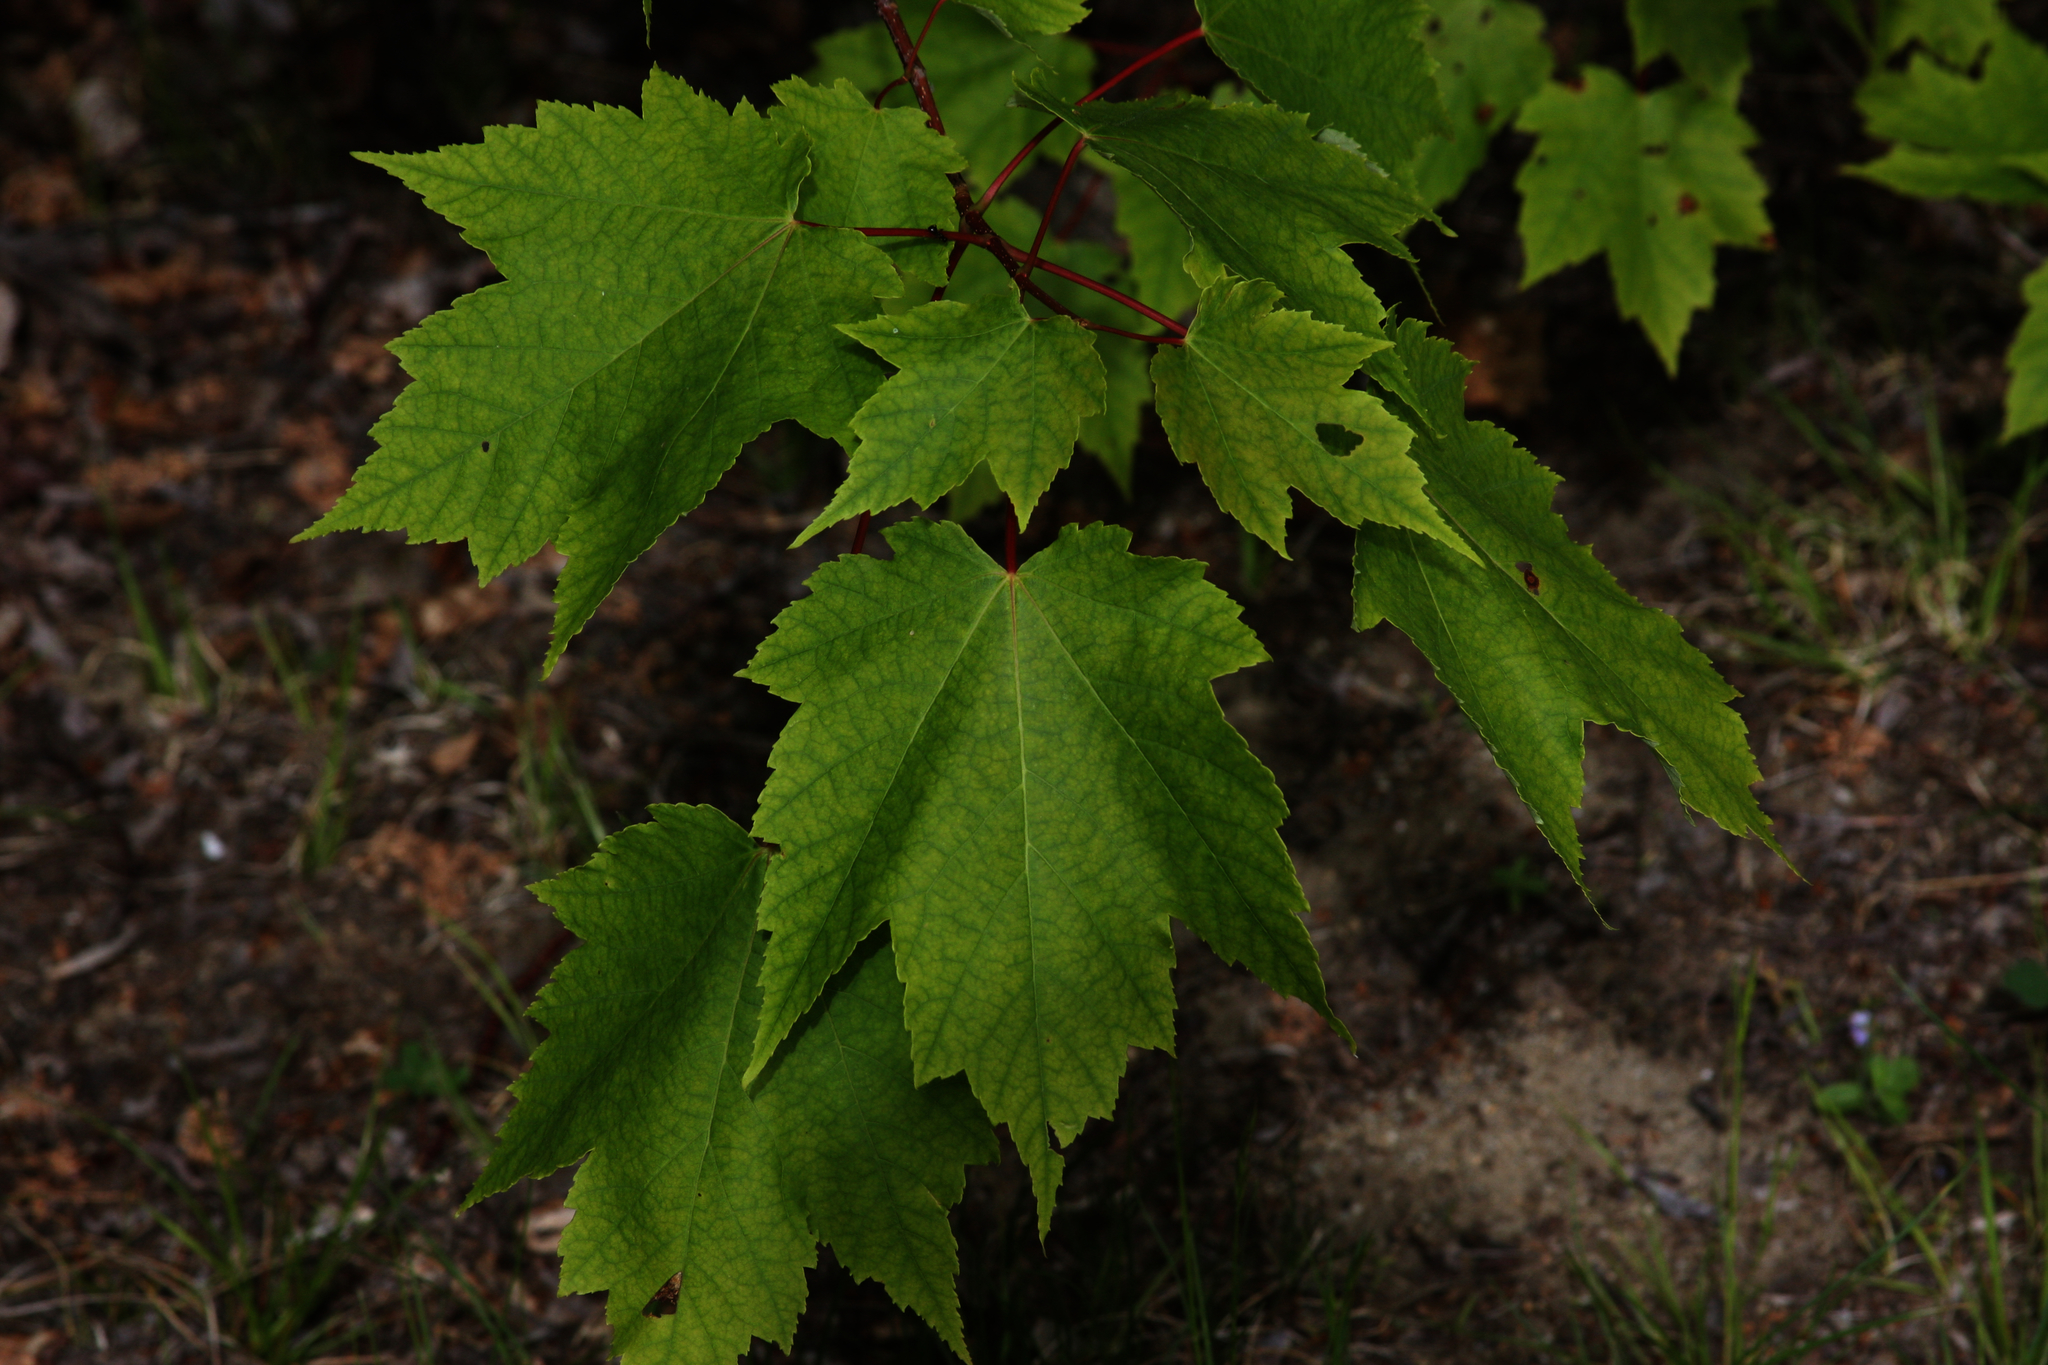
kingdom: Plantae
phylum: Tracheophyta
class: Magnoliopsida
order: Sapindales
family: Sapindaceae
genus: Acer
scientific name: Acer rubrum
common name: Red maple
